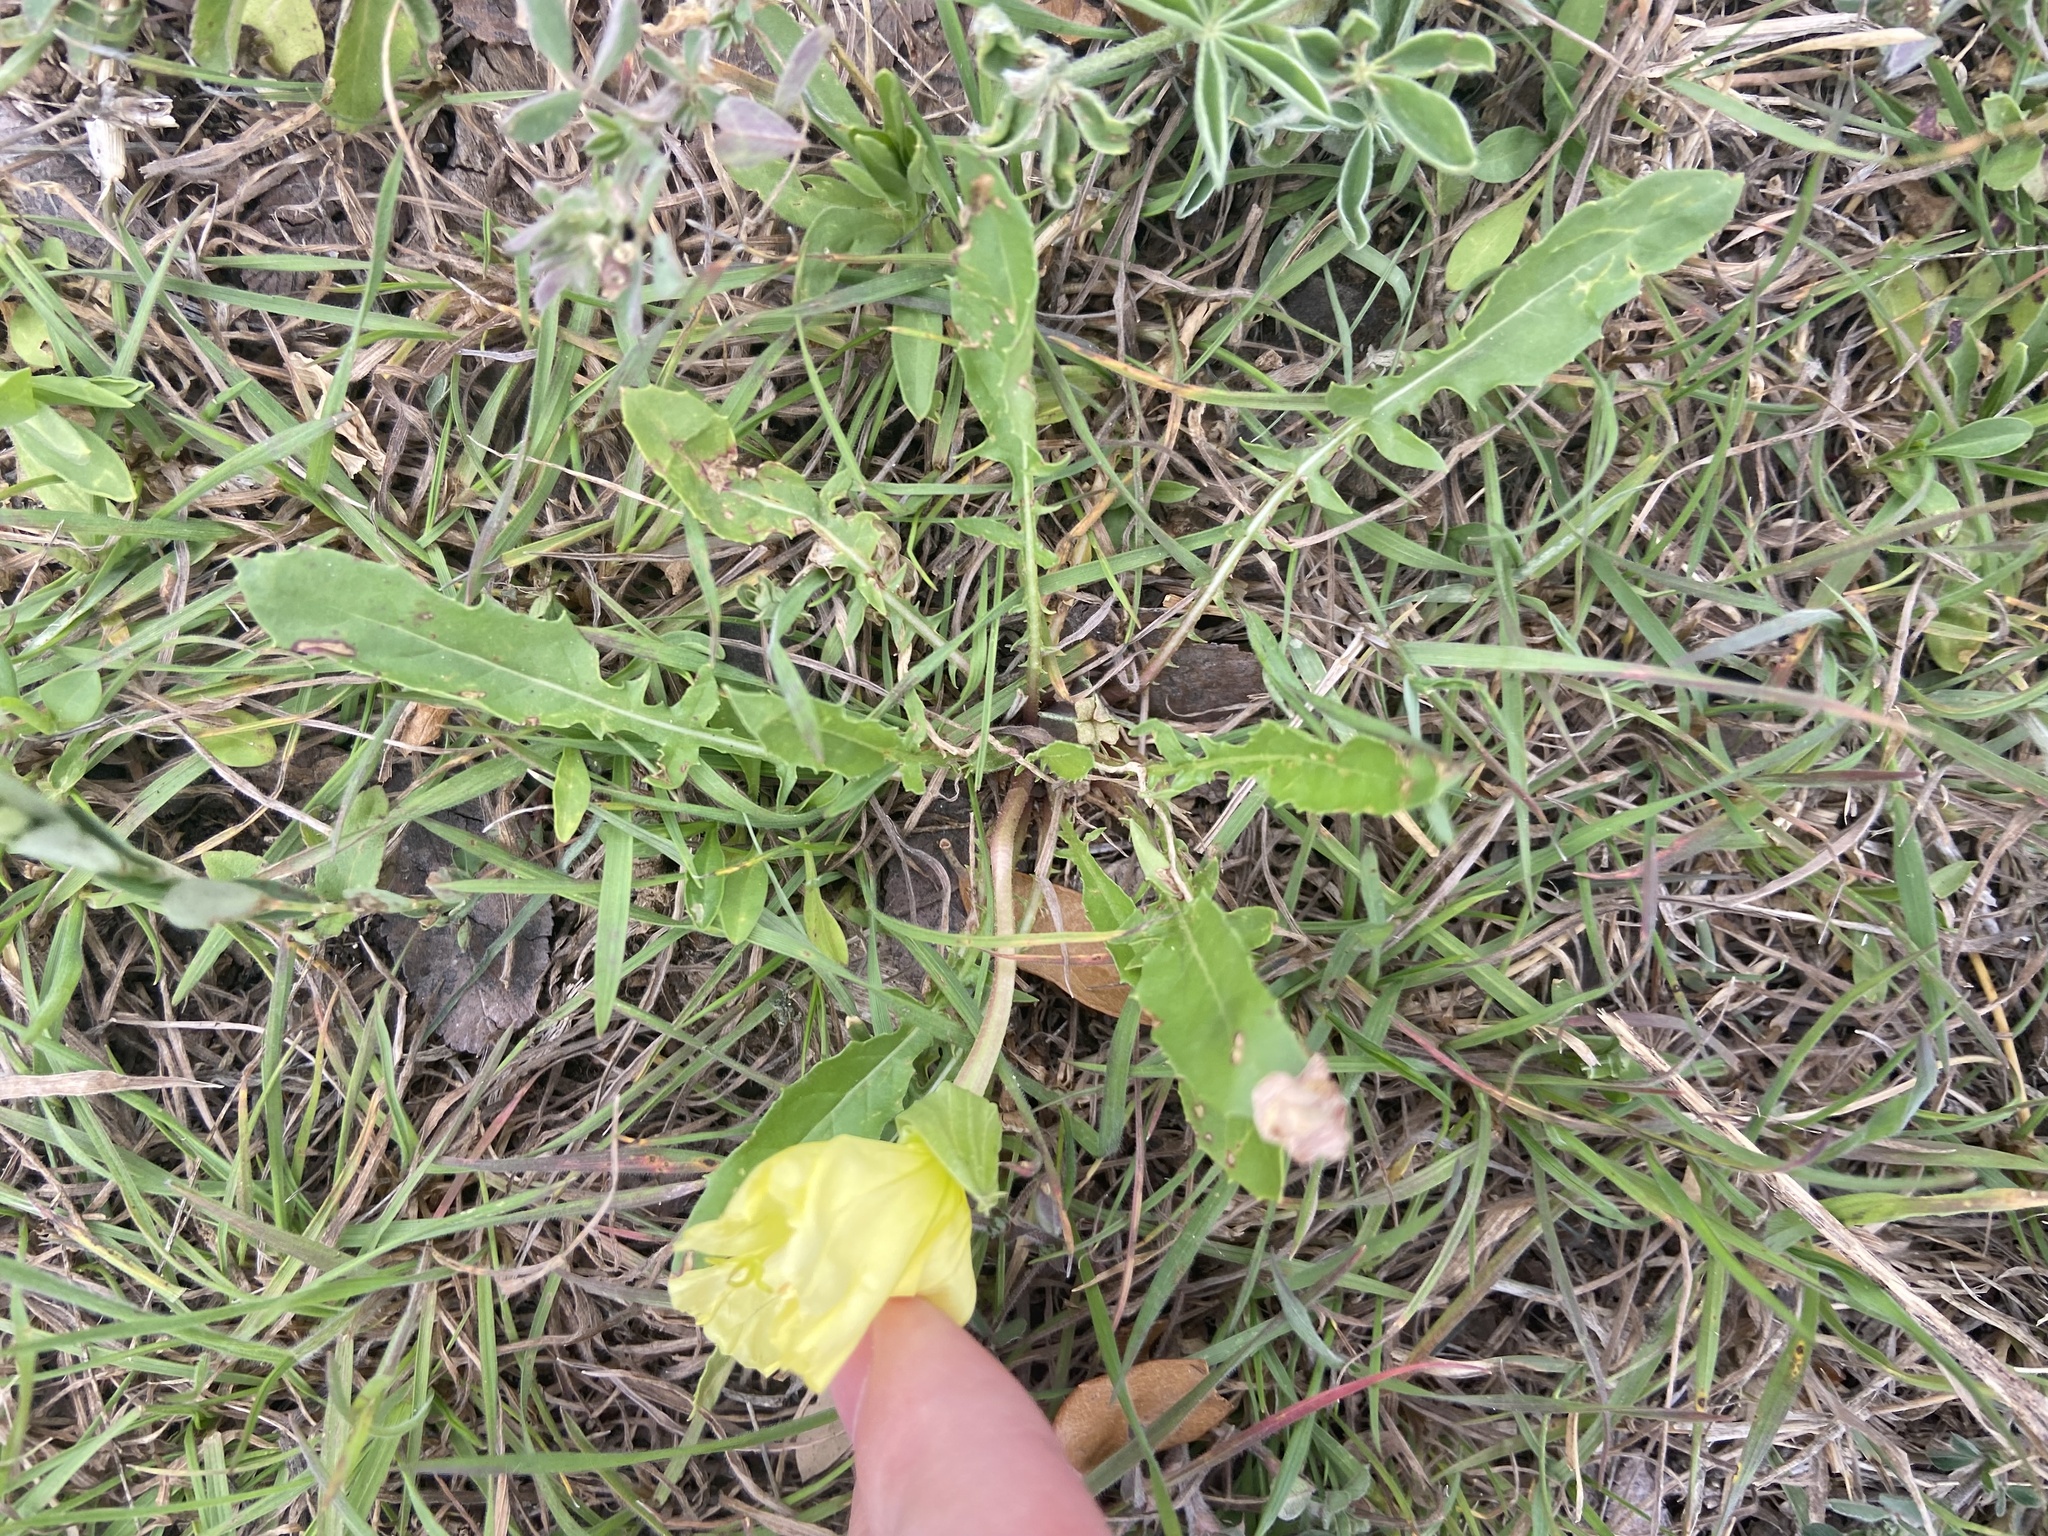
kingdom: Plantae
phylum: Tracheophyta
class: Magnoliopsida
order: Myrtales
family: Onagraceae
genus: Oenothera
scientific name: Oenothera triloba
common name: Sessile evening-primrose
